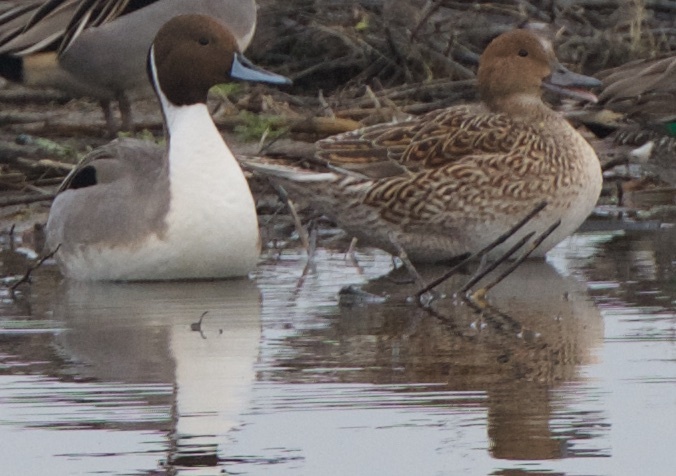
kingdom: Animalia
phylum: Chordata
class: Aves
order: Anseriformes
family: Anatidae
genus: Anas
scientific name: Anas acuta
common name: Northern pintail
